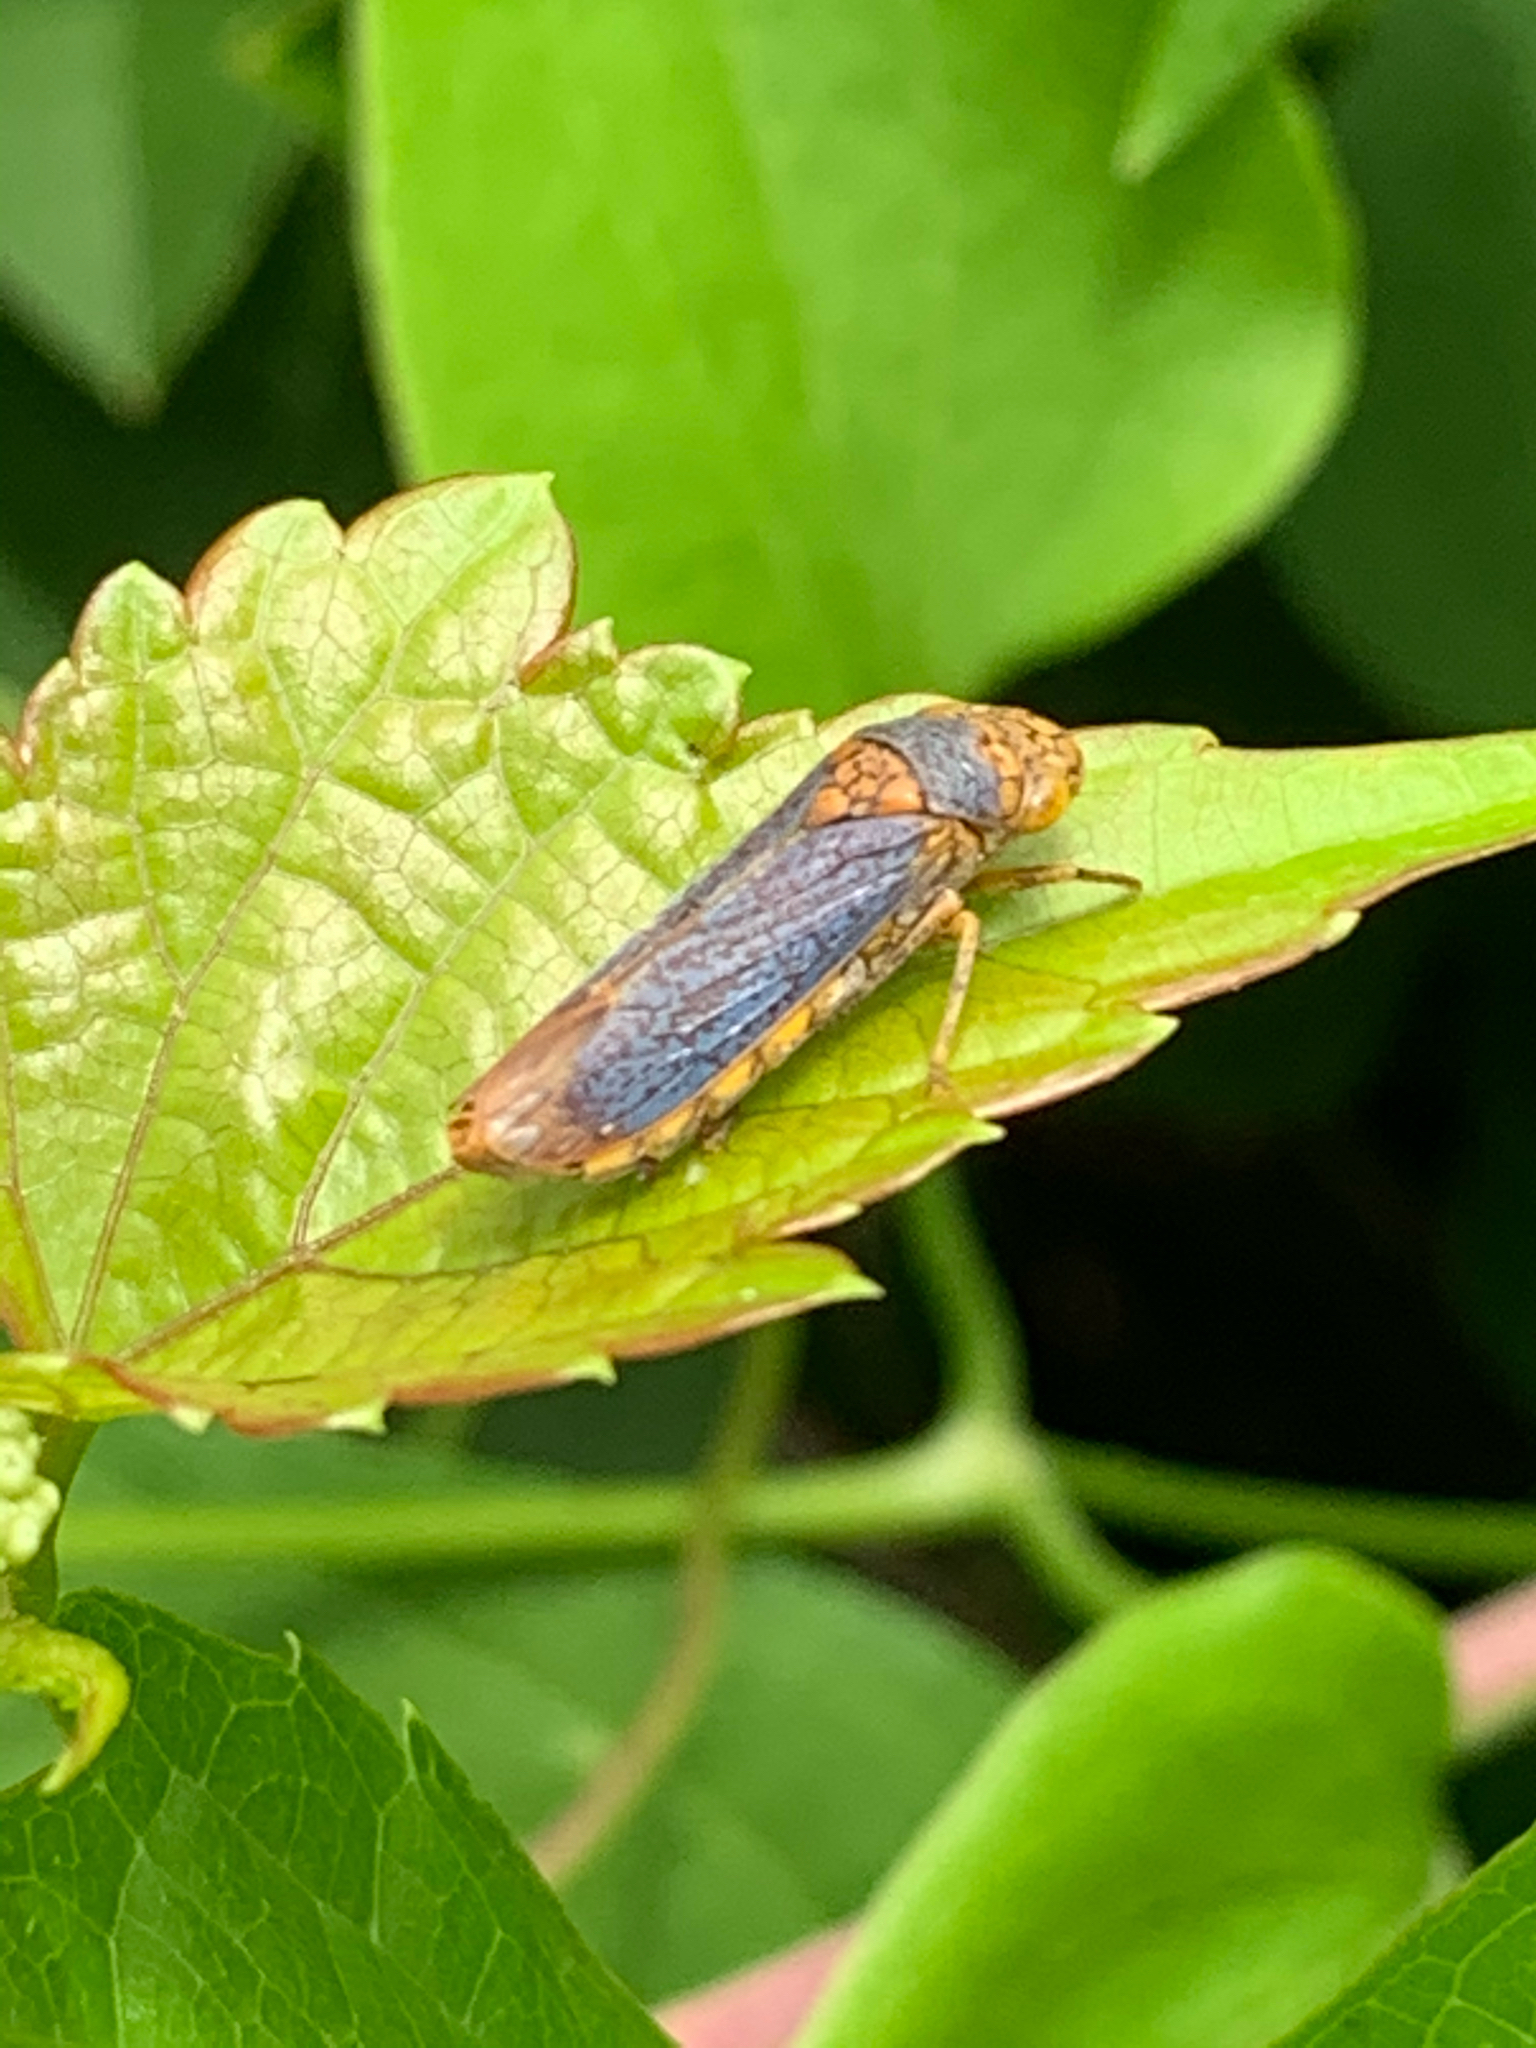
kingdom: Animalia
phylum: Arthropoda
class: Insecta
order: Hemiptera
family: Cicadellidae
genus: Oncometopia
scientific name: Oncometopia orbona
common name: Broad-headed sharpshooter
